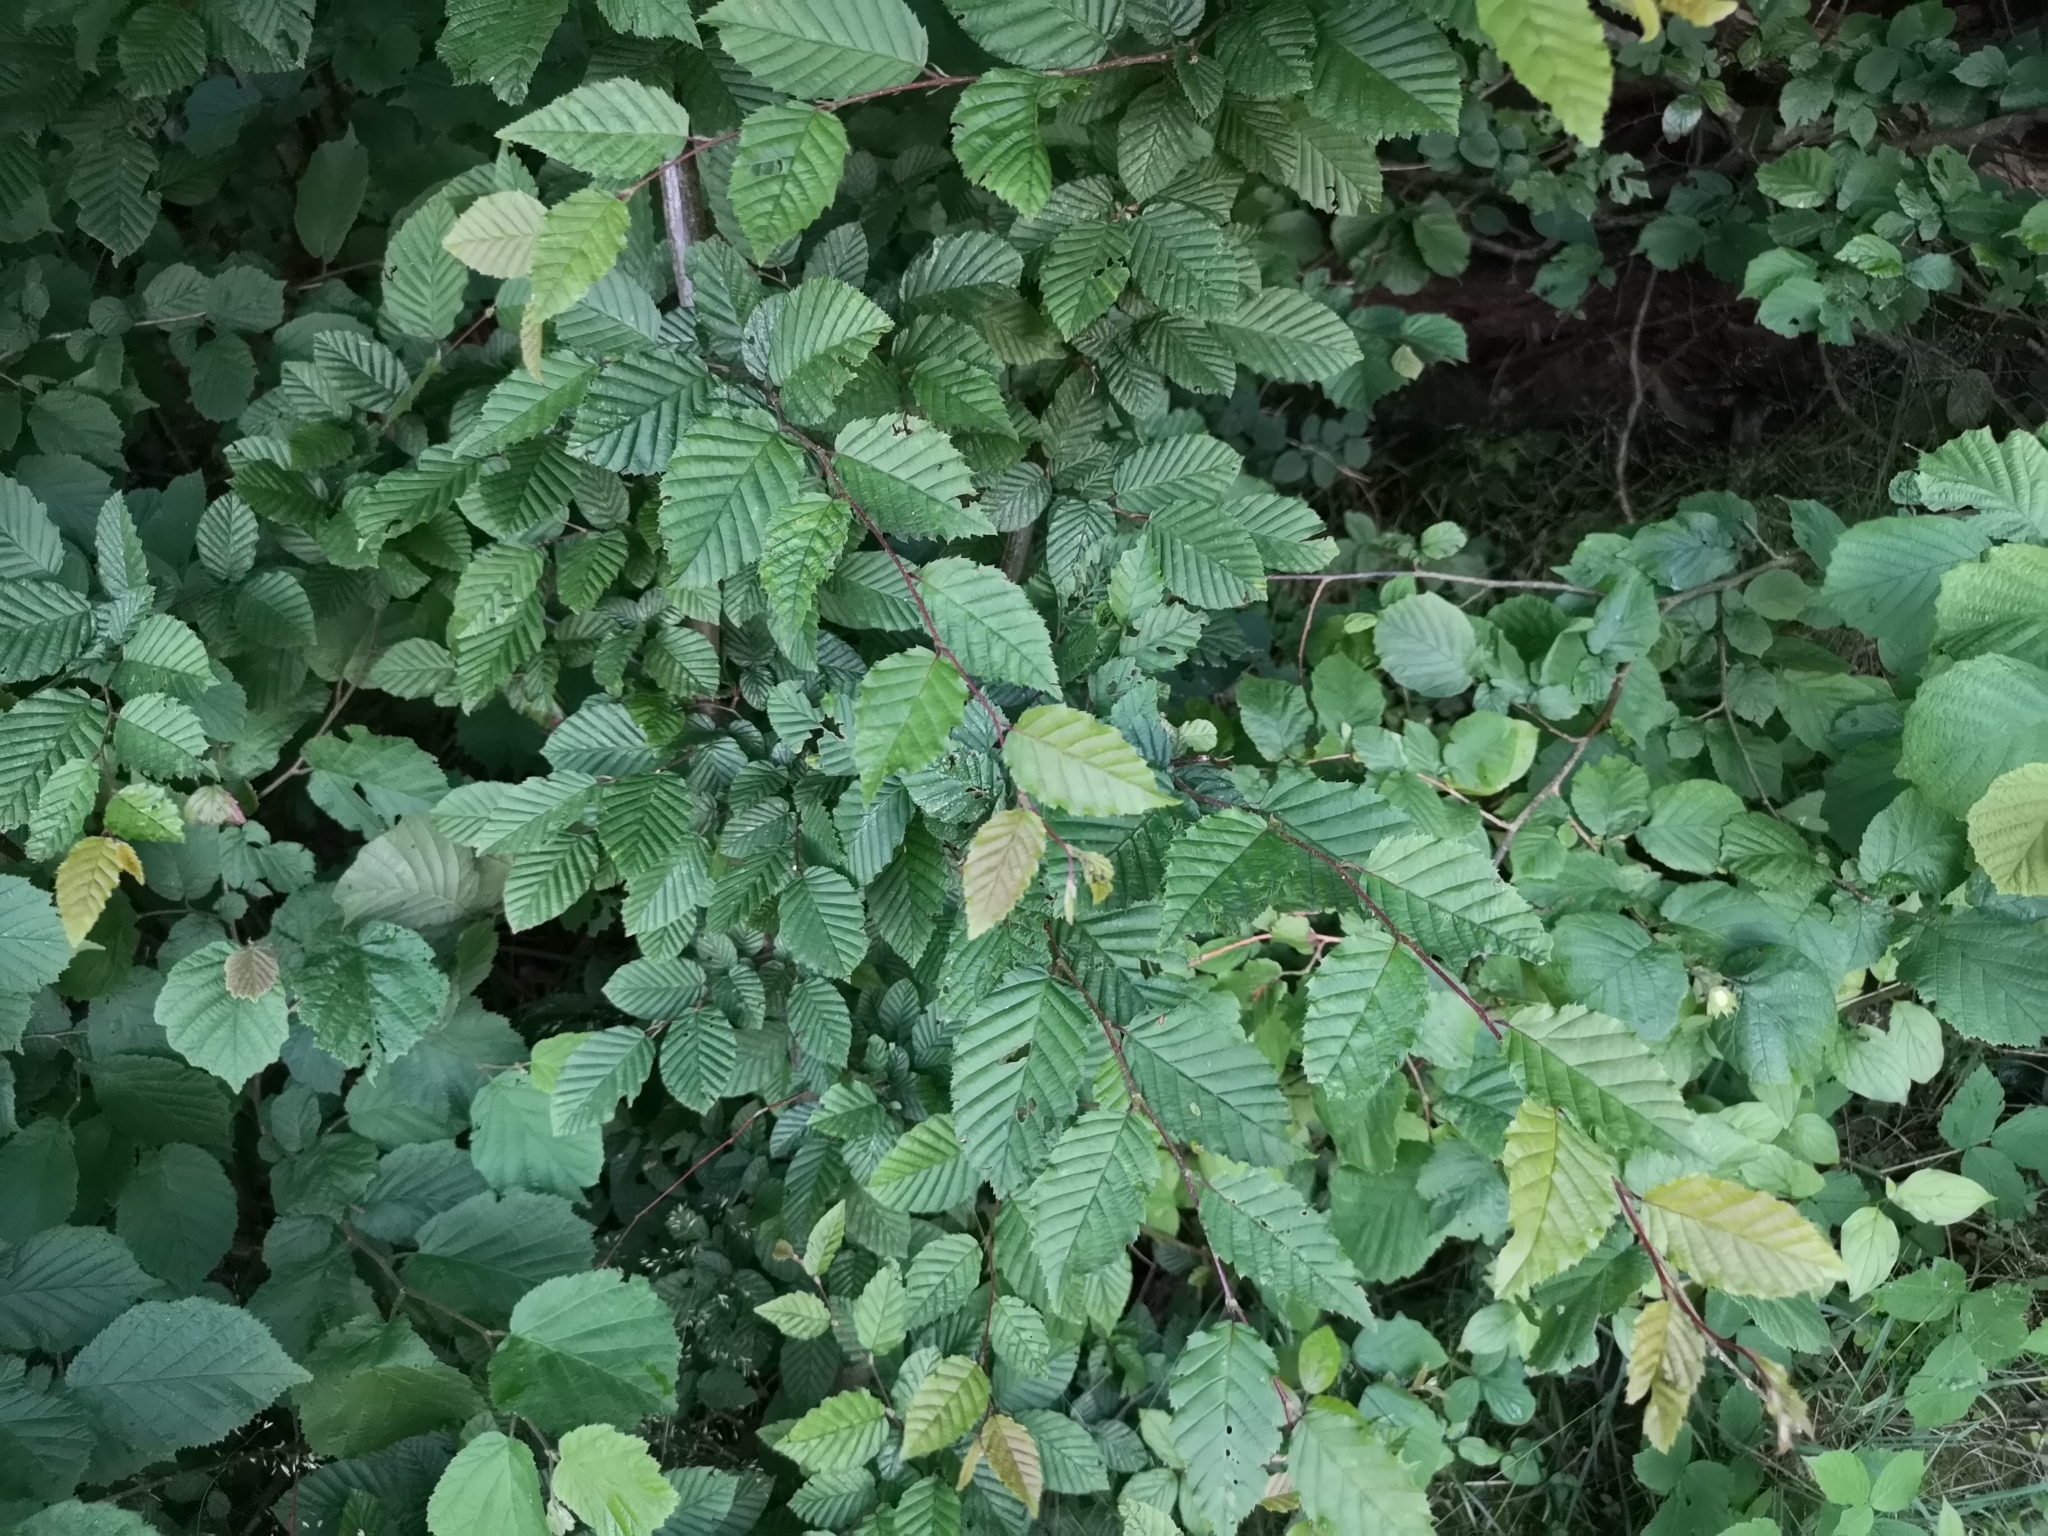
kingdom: Plantae
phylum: Tracheophyta
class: Magnoliopsida
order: Fagales
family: Betulaceae
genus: Carpinus
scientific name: Carpinus betulus
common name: Hornbeam
